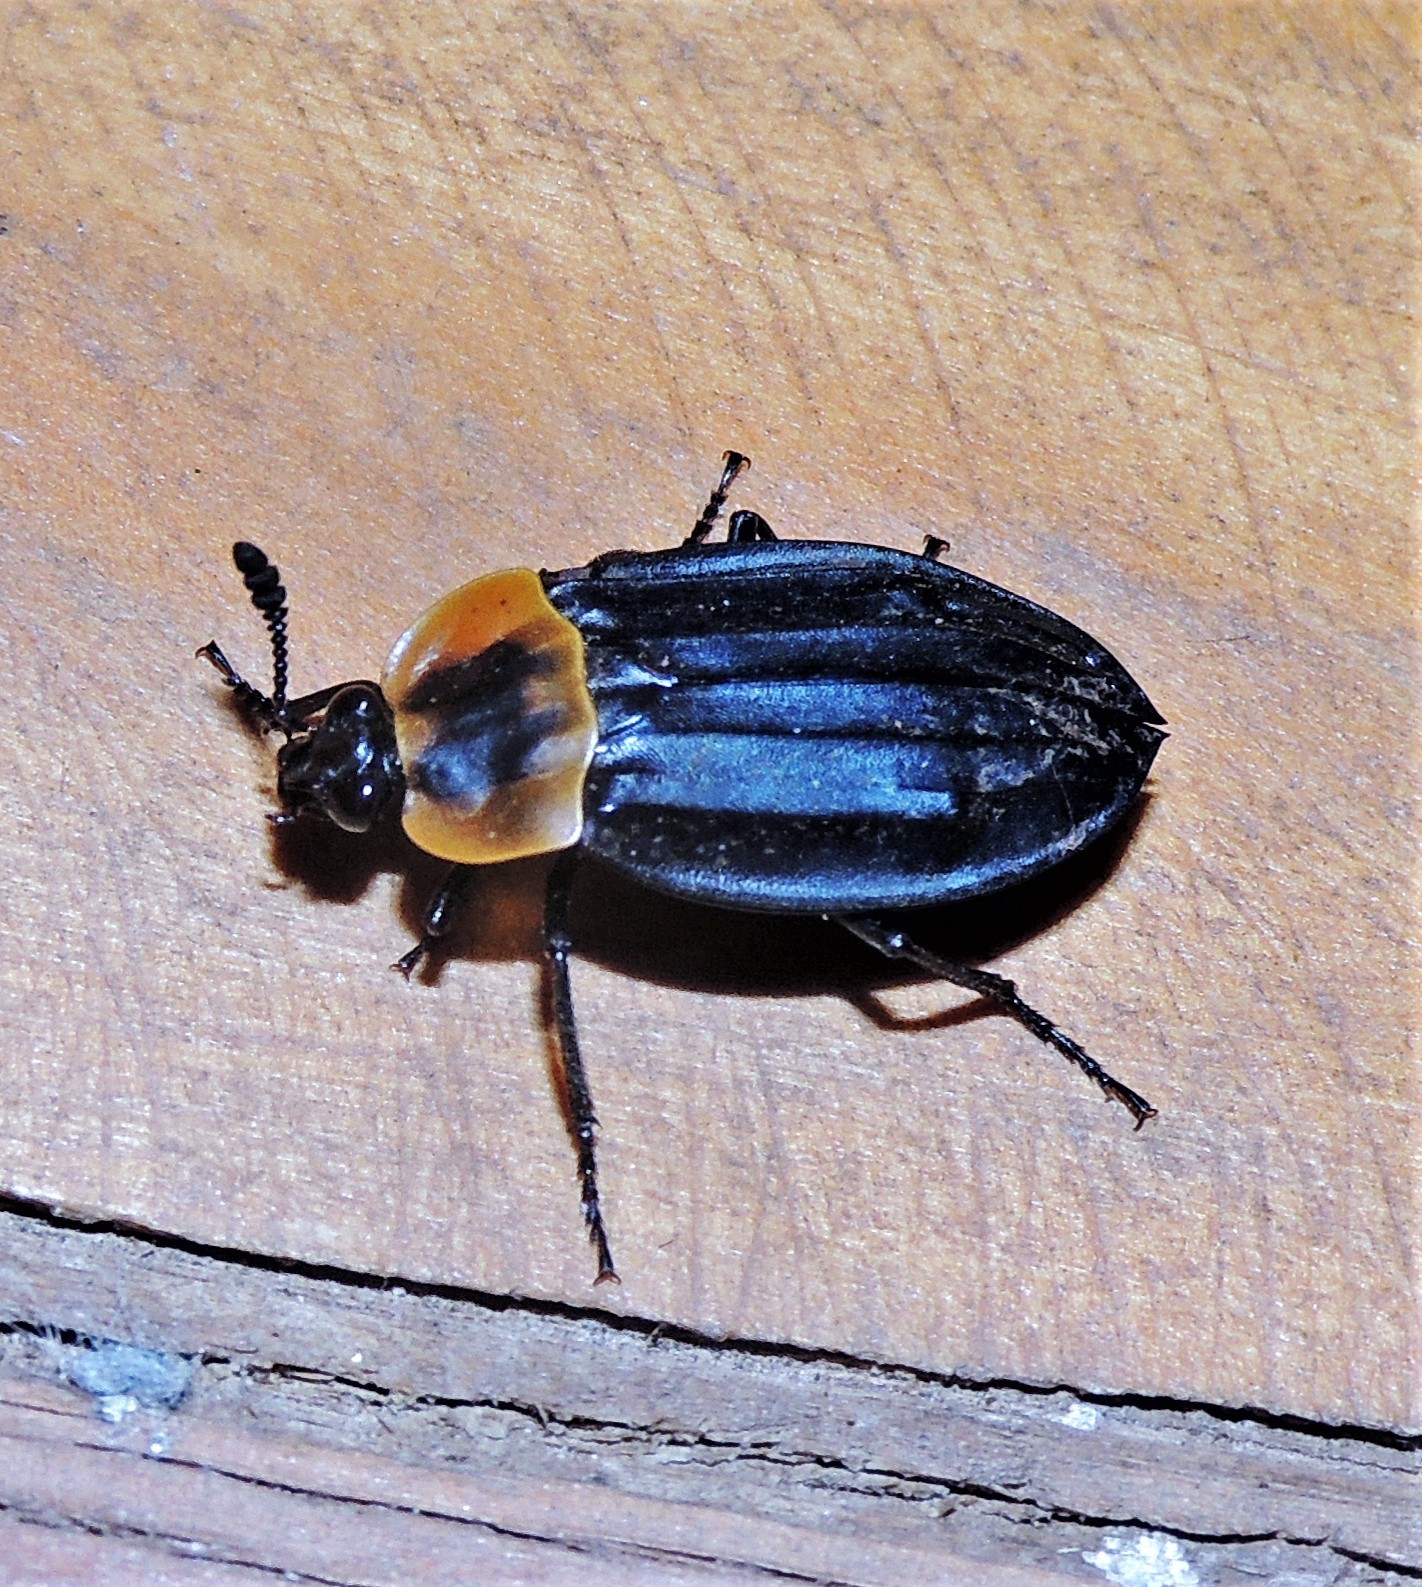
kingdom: Animalia
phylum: Arthropoda
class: Insecta
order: Coleoptera
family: Staphylinidae
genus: Oxelytrum
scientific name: Oxelytrum discicolle
